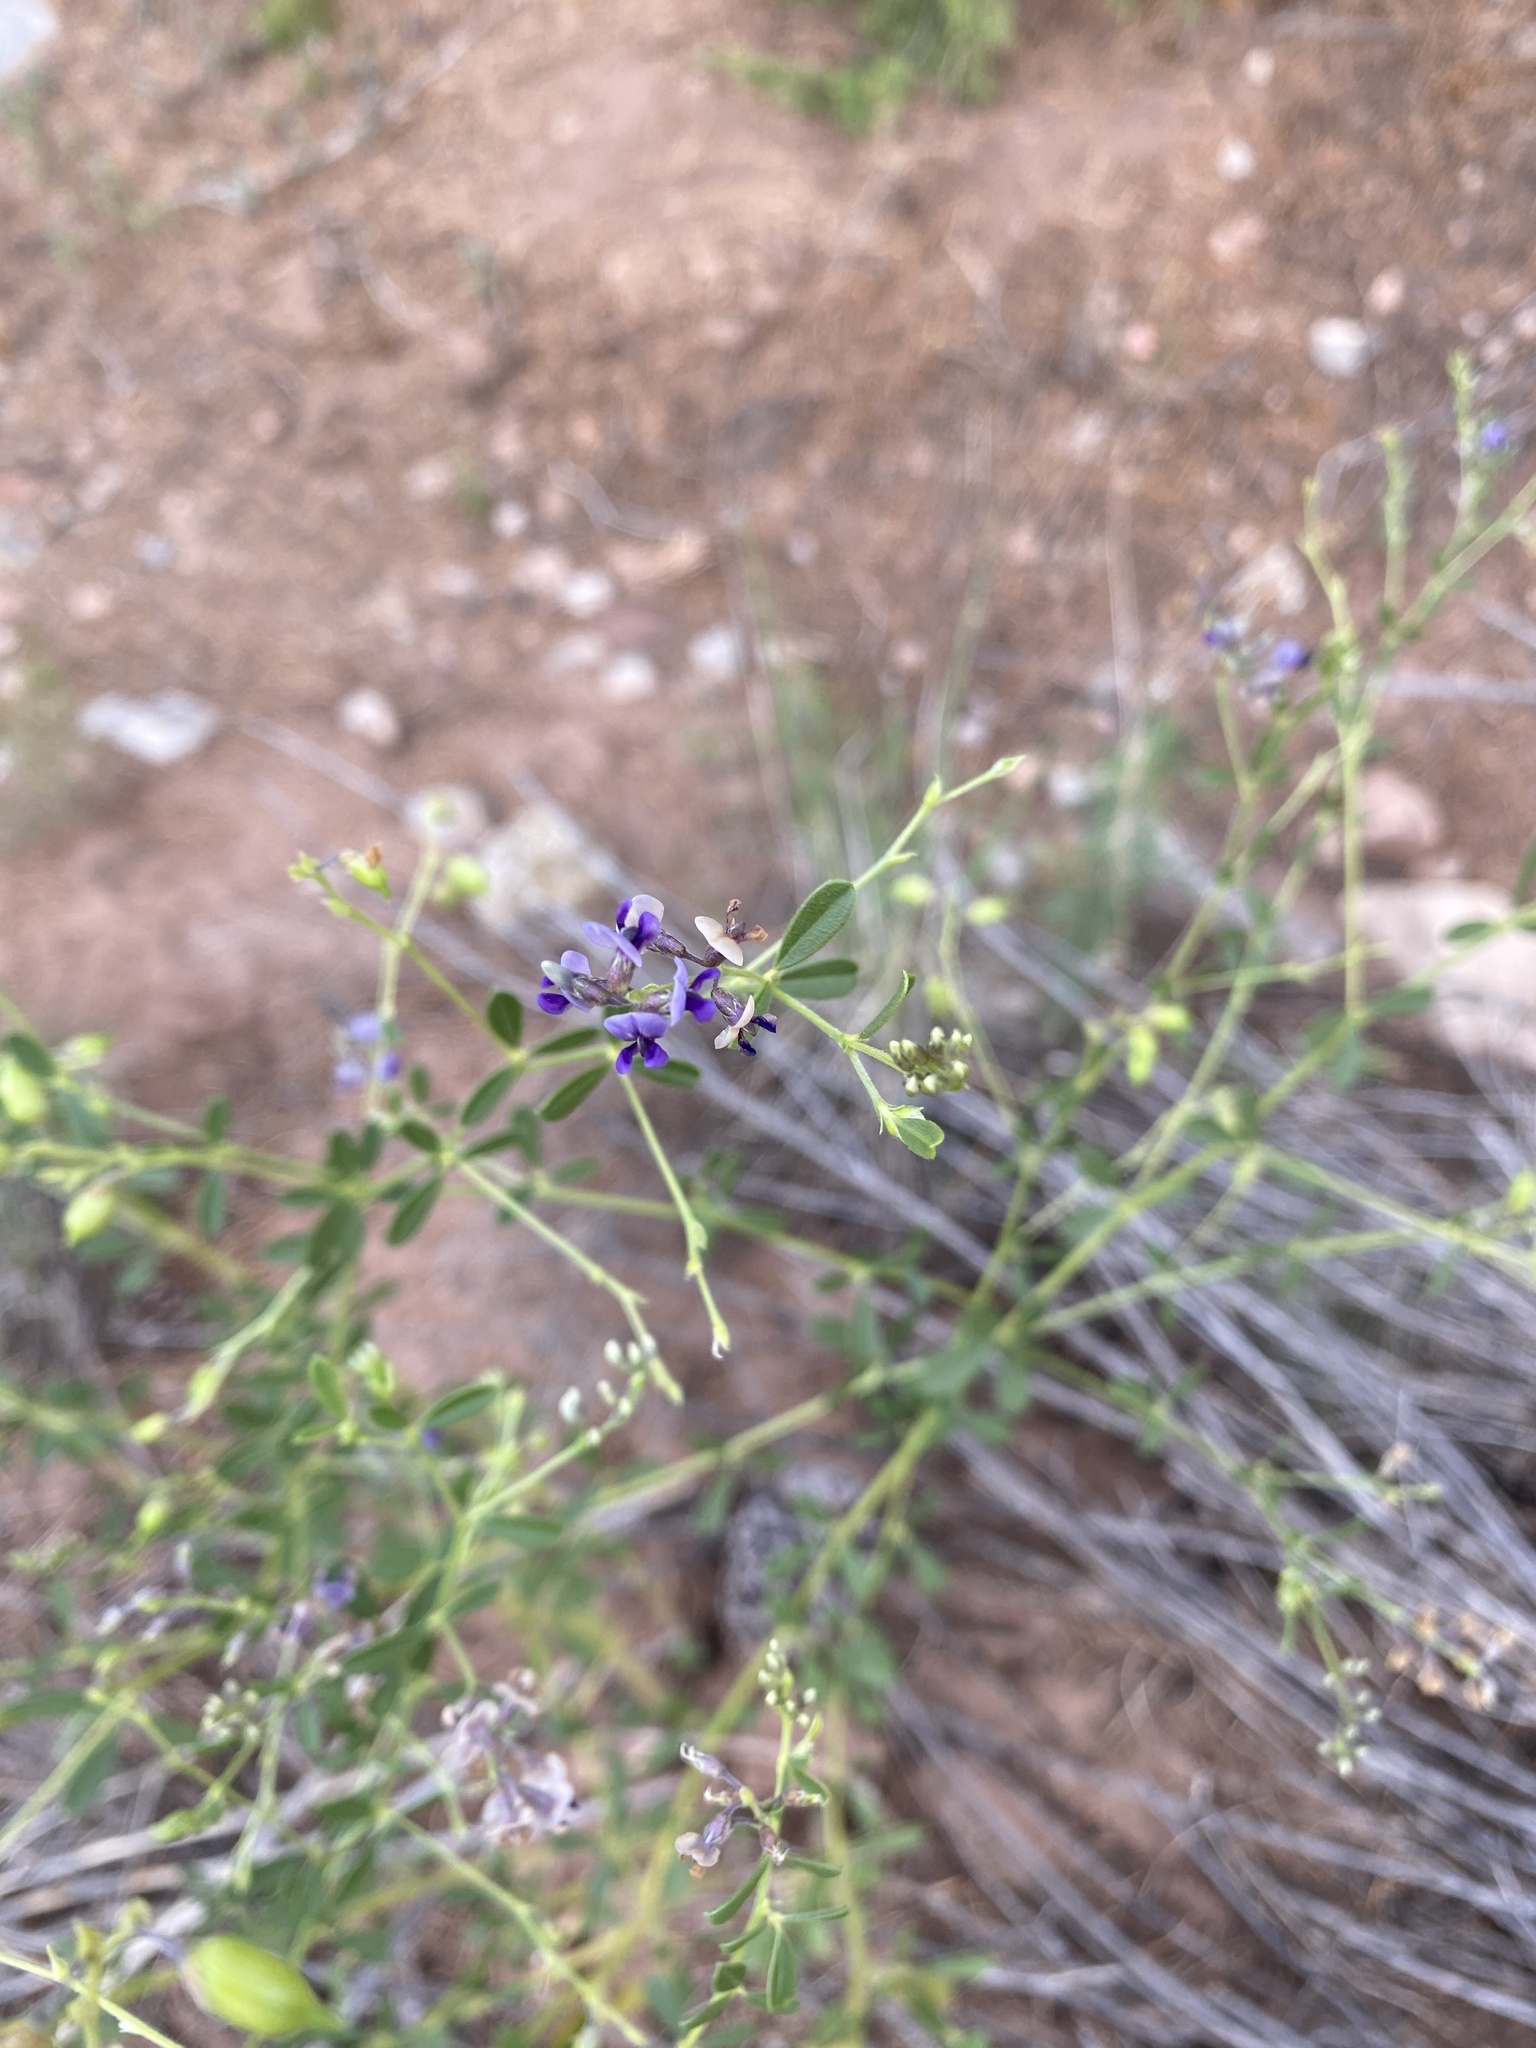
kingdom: Plantae
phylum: Tracheophyta
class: Magnoliopsida
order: Fabales
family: Fabaceae
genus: Pediomelum
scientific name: Pediomelum tenuiflorum
